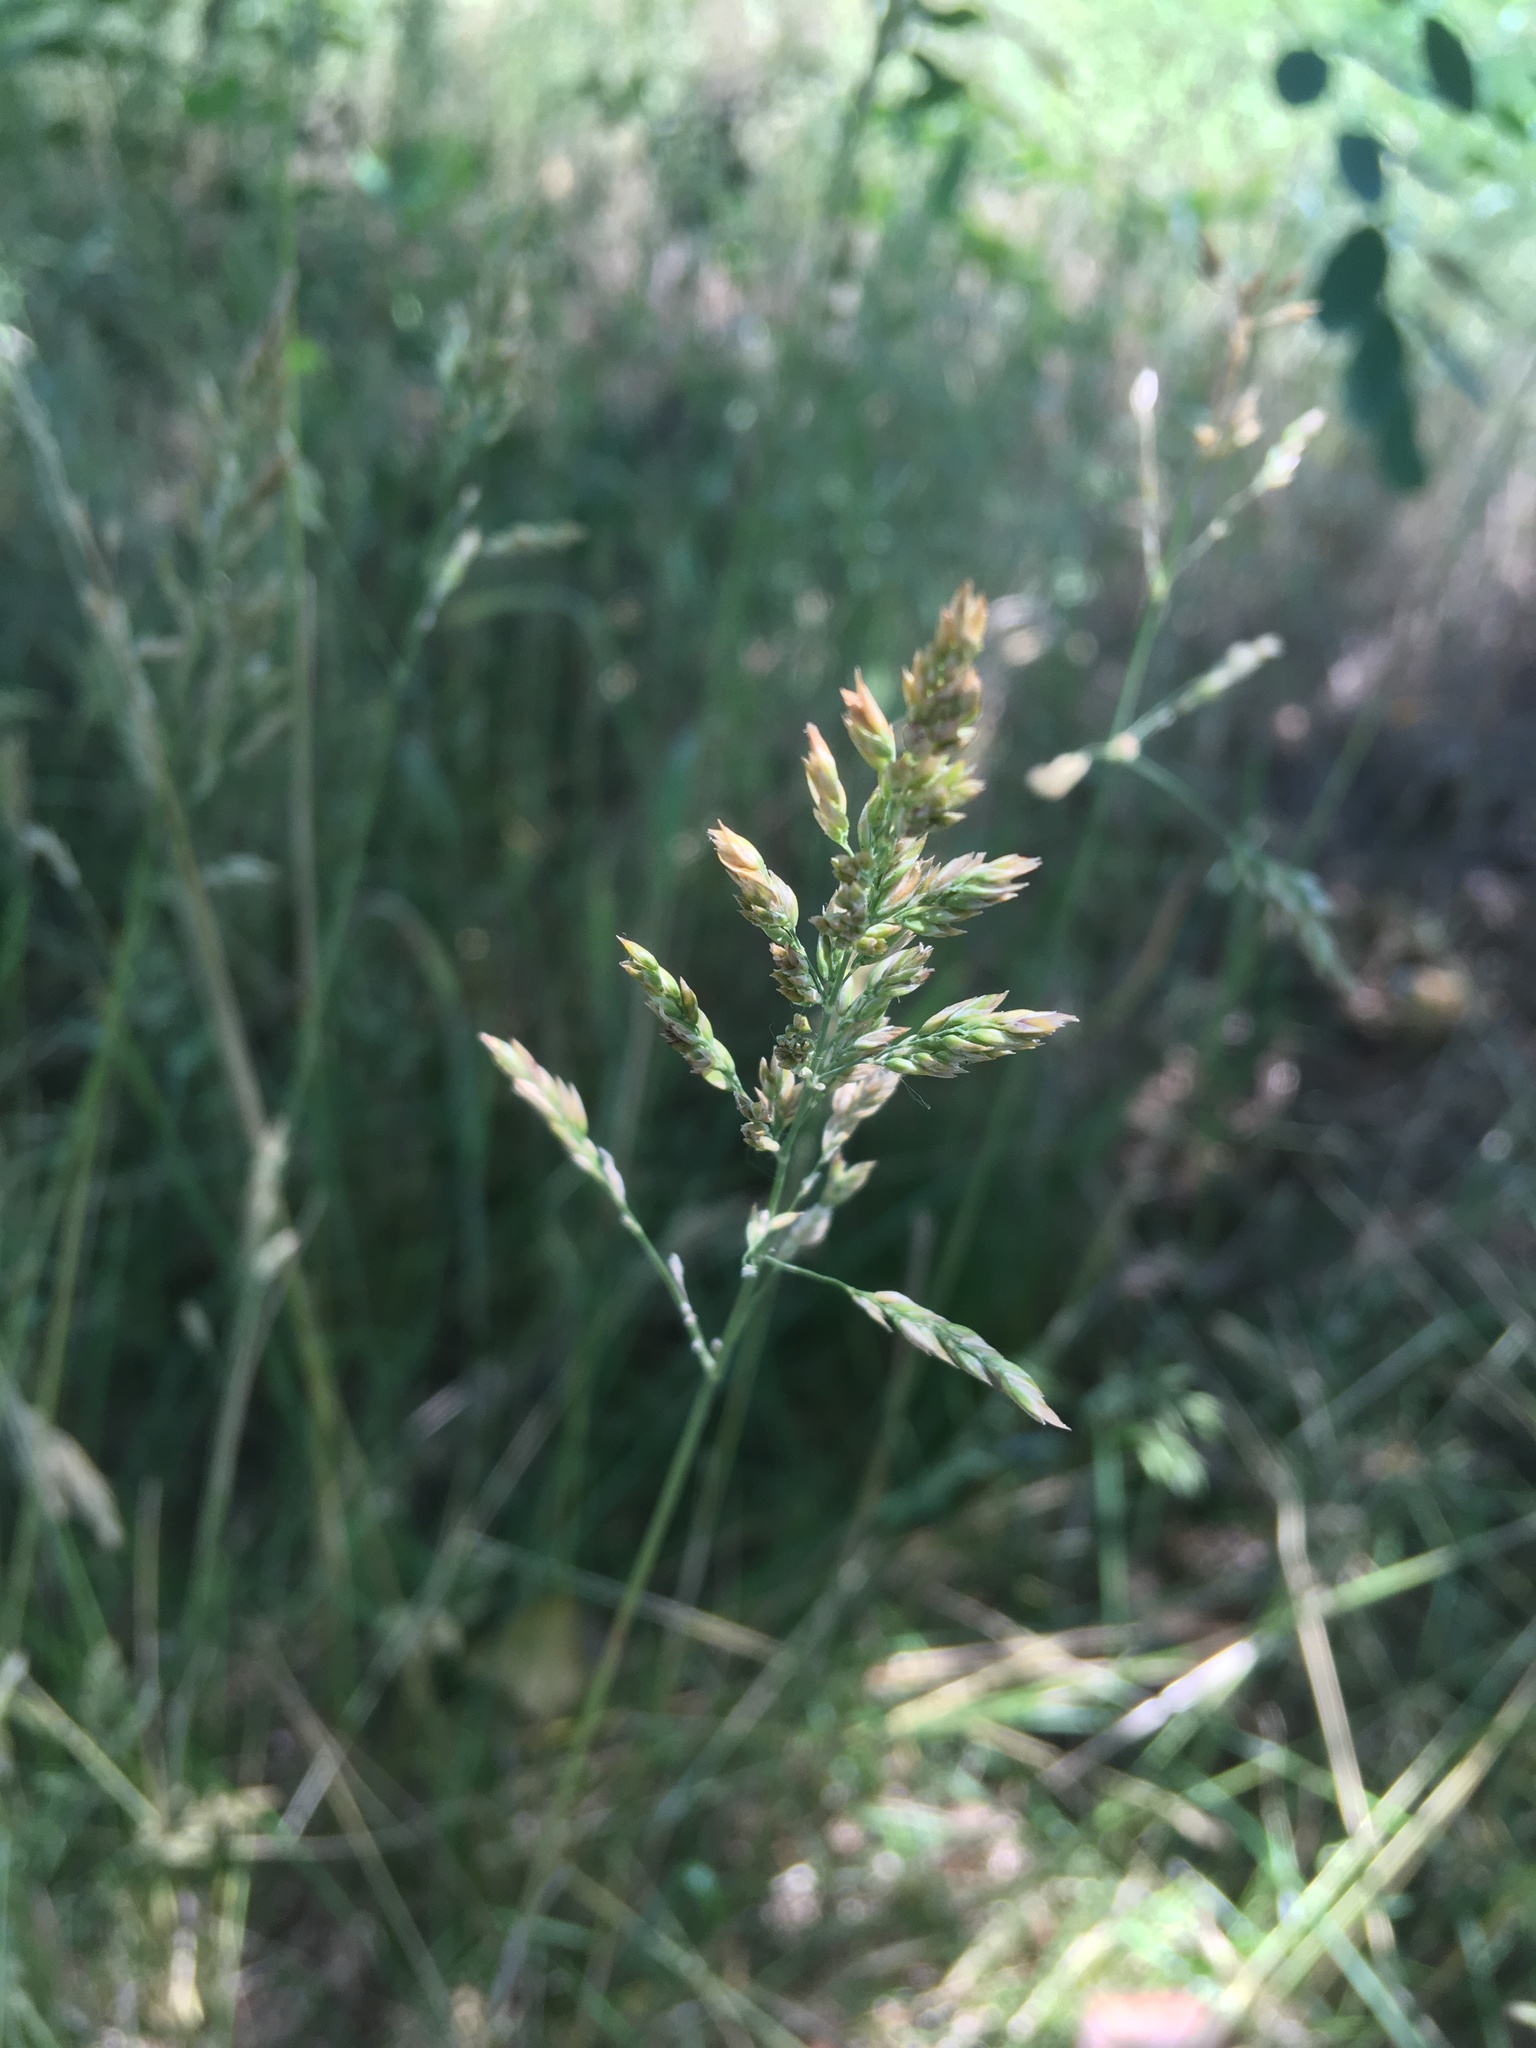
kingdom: Plantae
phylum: Tracheophyta
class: Liliopsida
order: Poales
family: Poaceae
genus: Poa
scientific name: Poa pratensis
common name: Kentucky bluegrass
